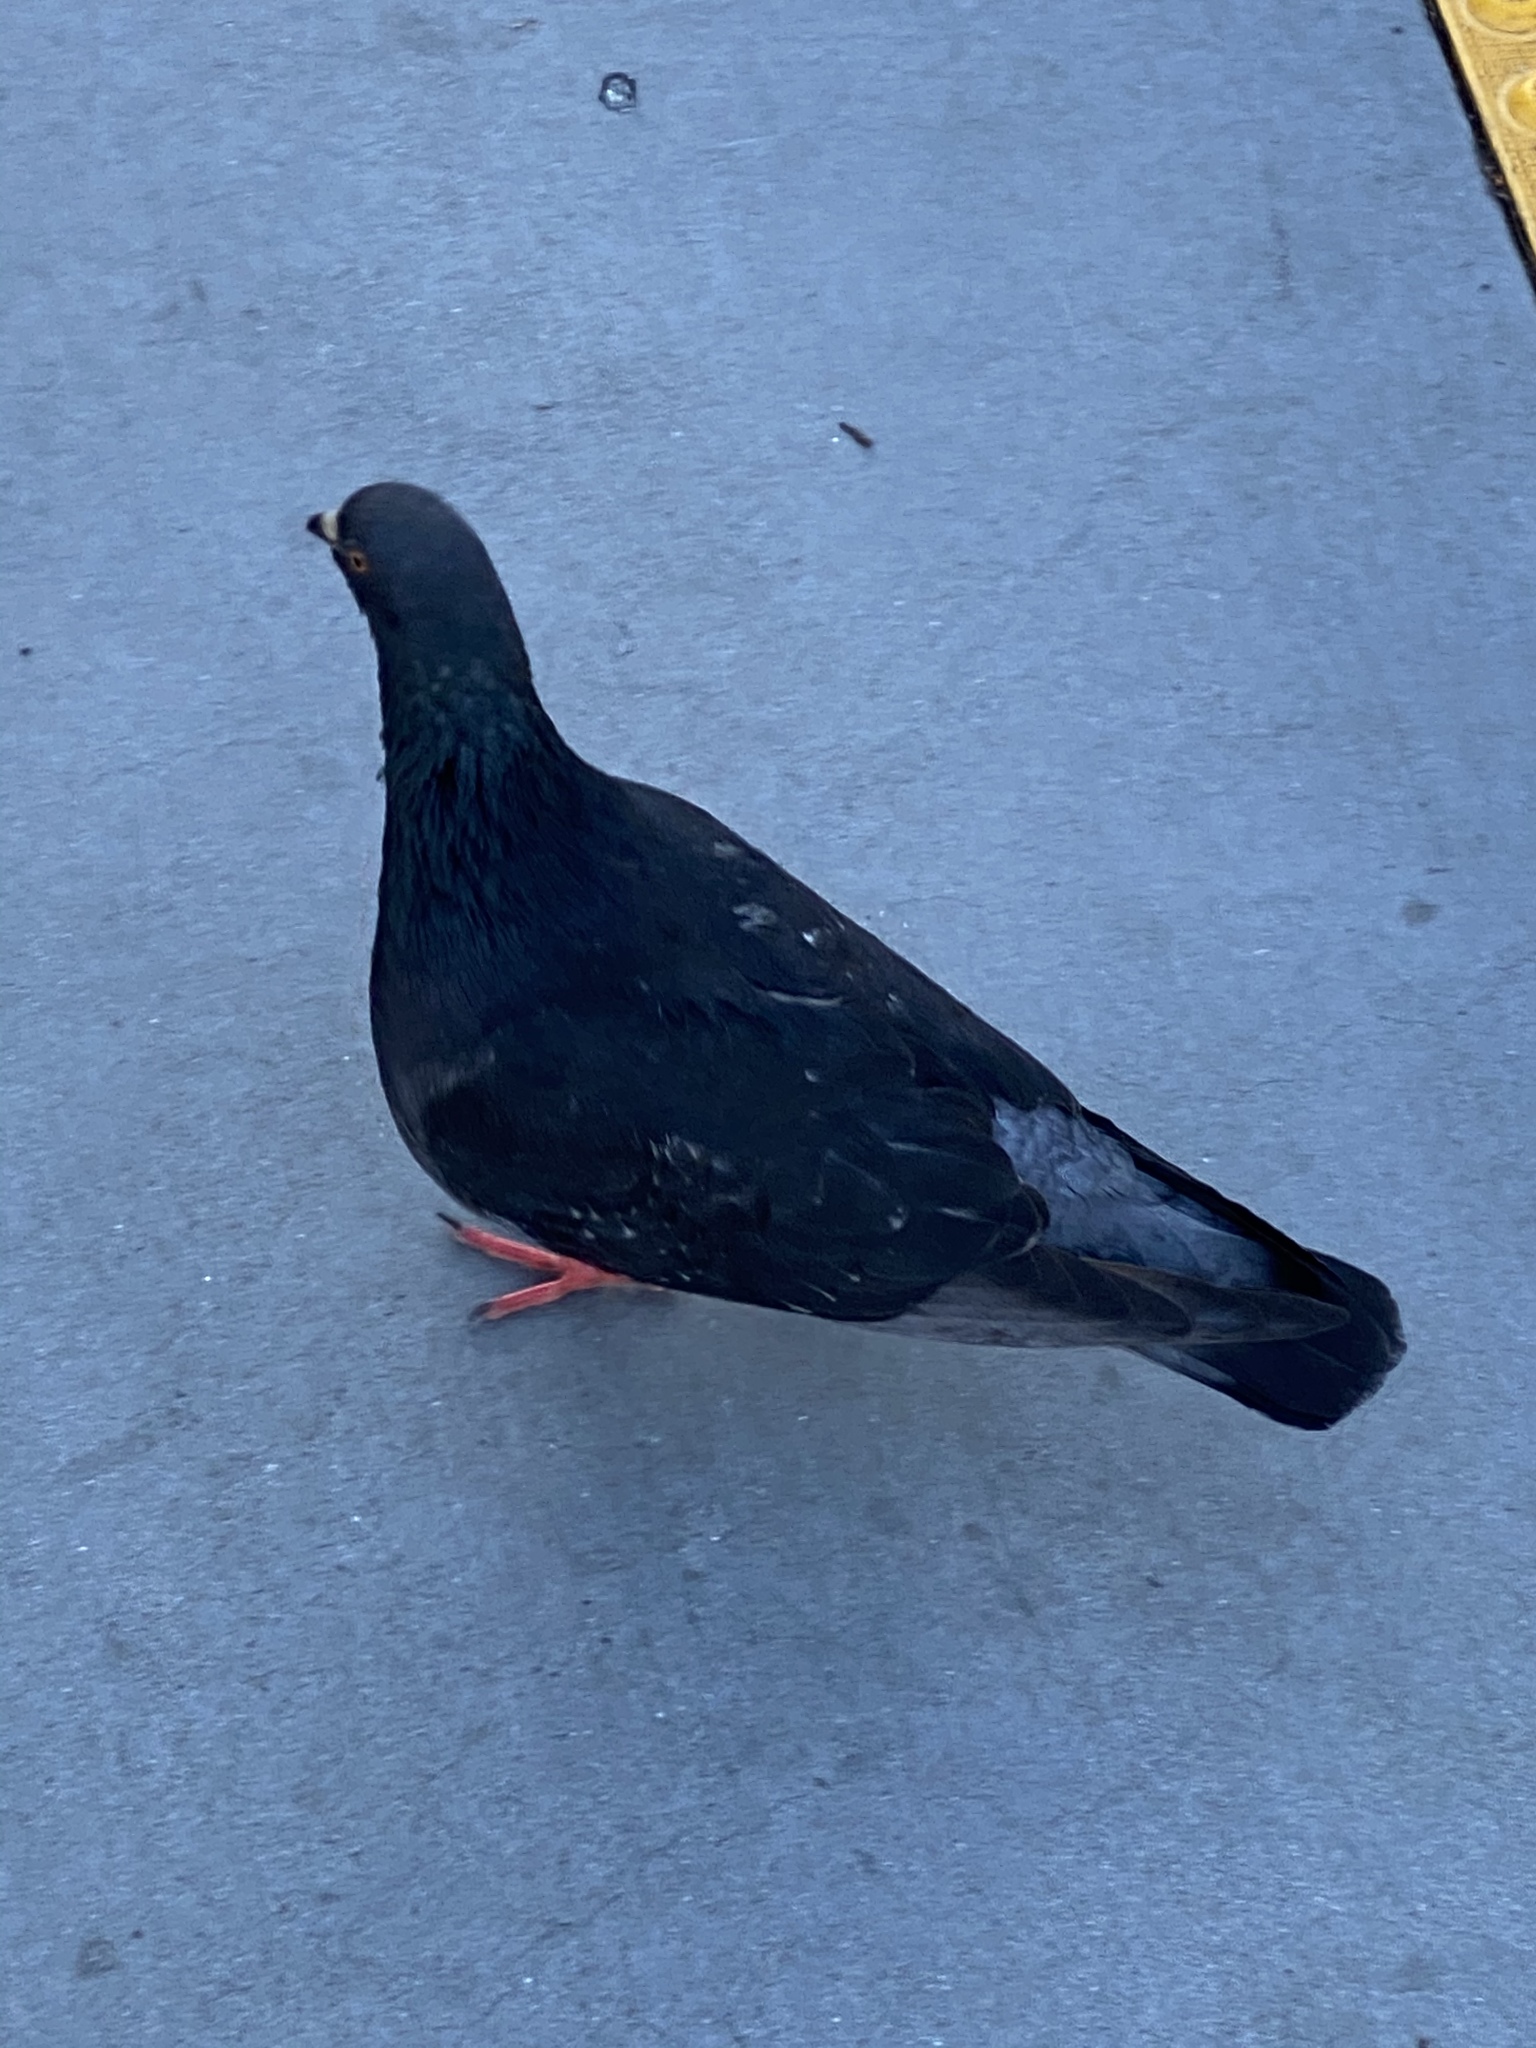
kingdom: Animalia
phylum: Chordata
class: Aves
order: Columbiformes
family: Columbidae
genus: Columba
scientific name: Columba livia
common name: Rock pigeon
